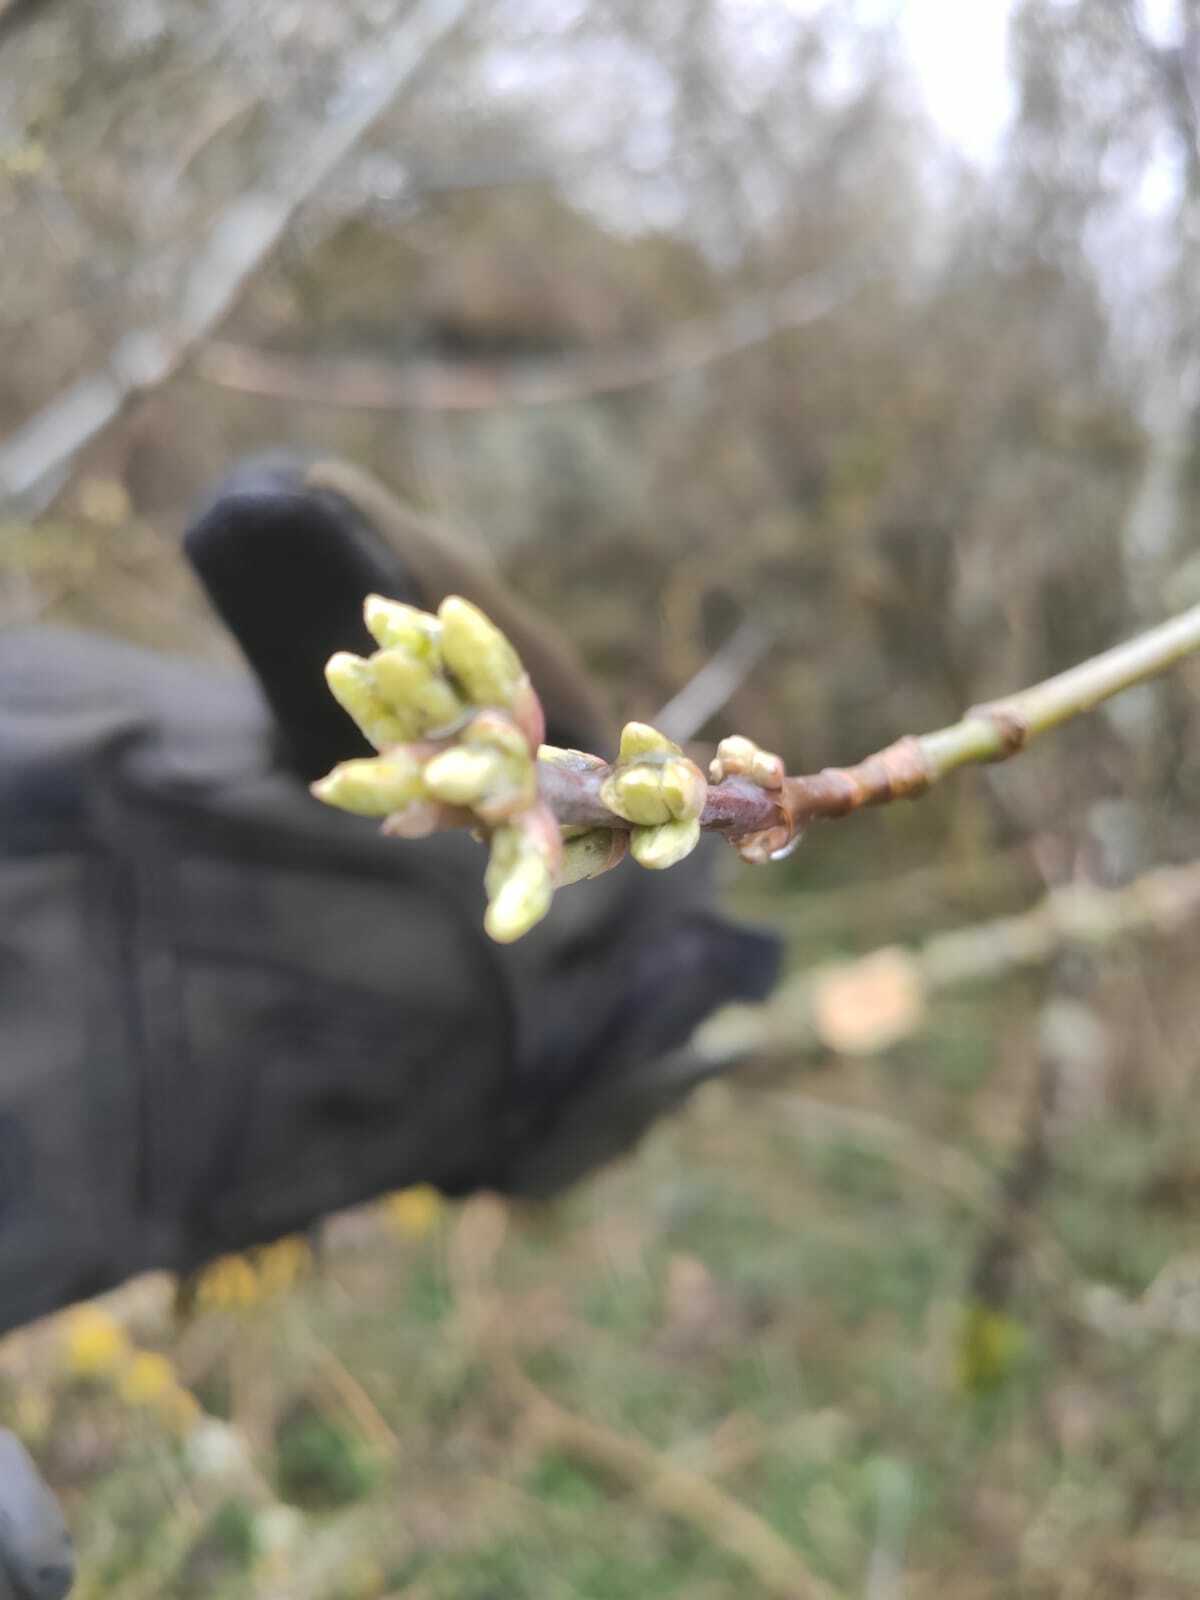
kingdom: Plantae
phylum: Tracheophyta
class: Magnoliopsida
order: Cornales
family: Cornaceae
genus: Cornus
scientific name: Cornus mas
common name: Cornelian-cherry
